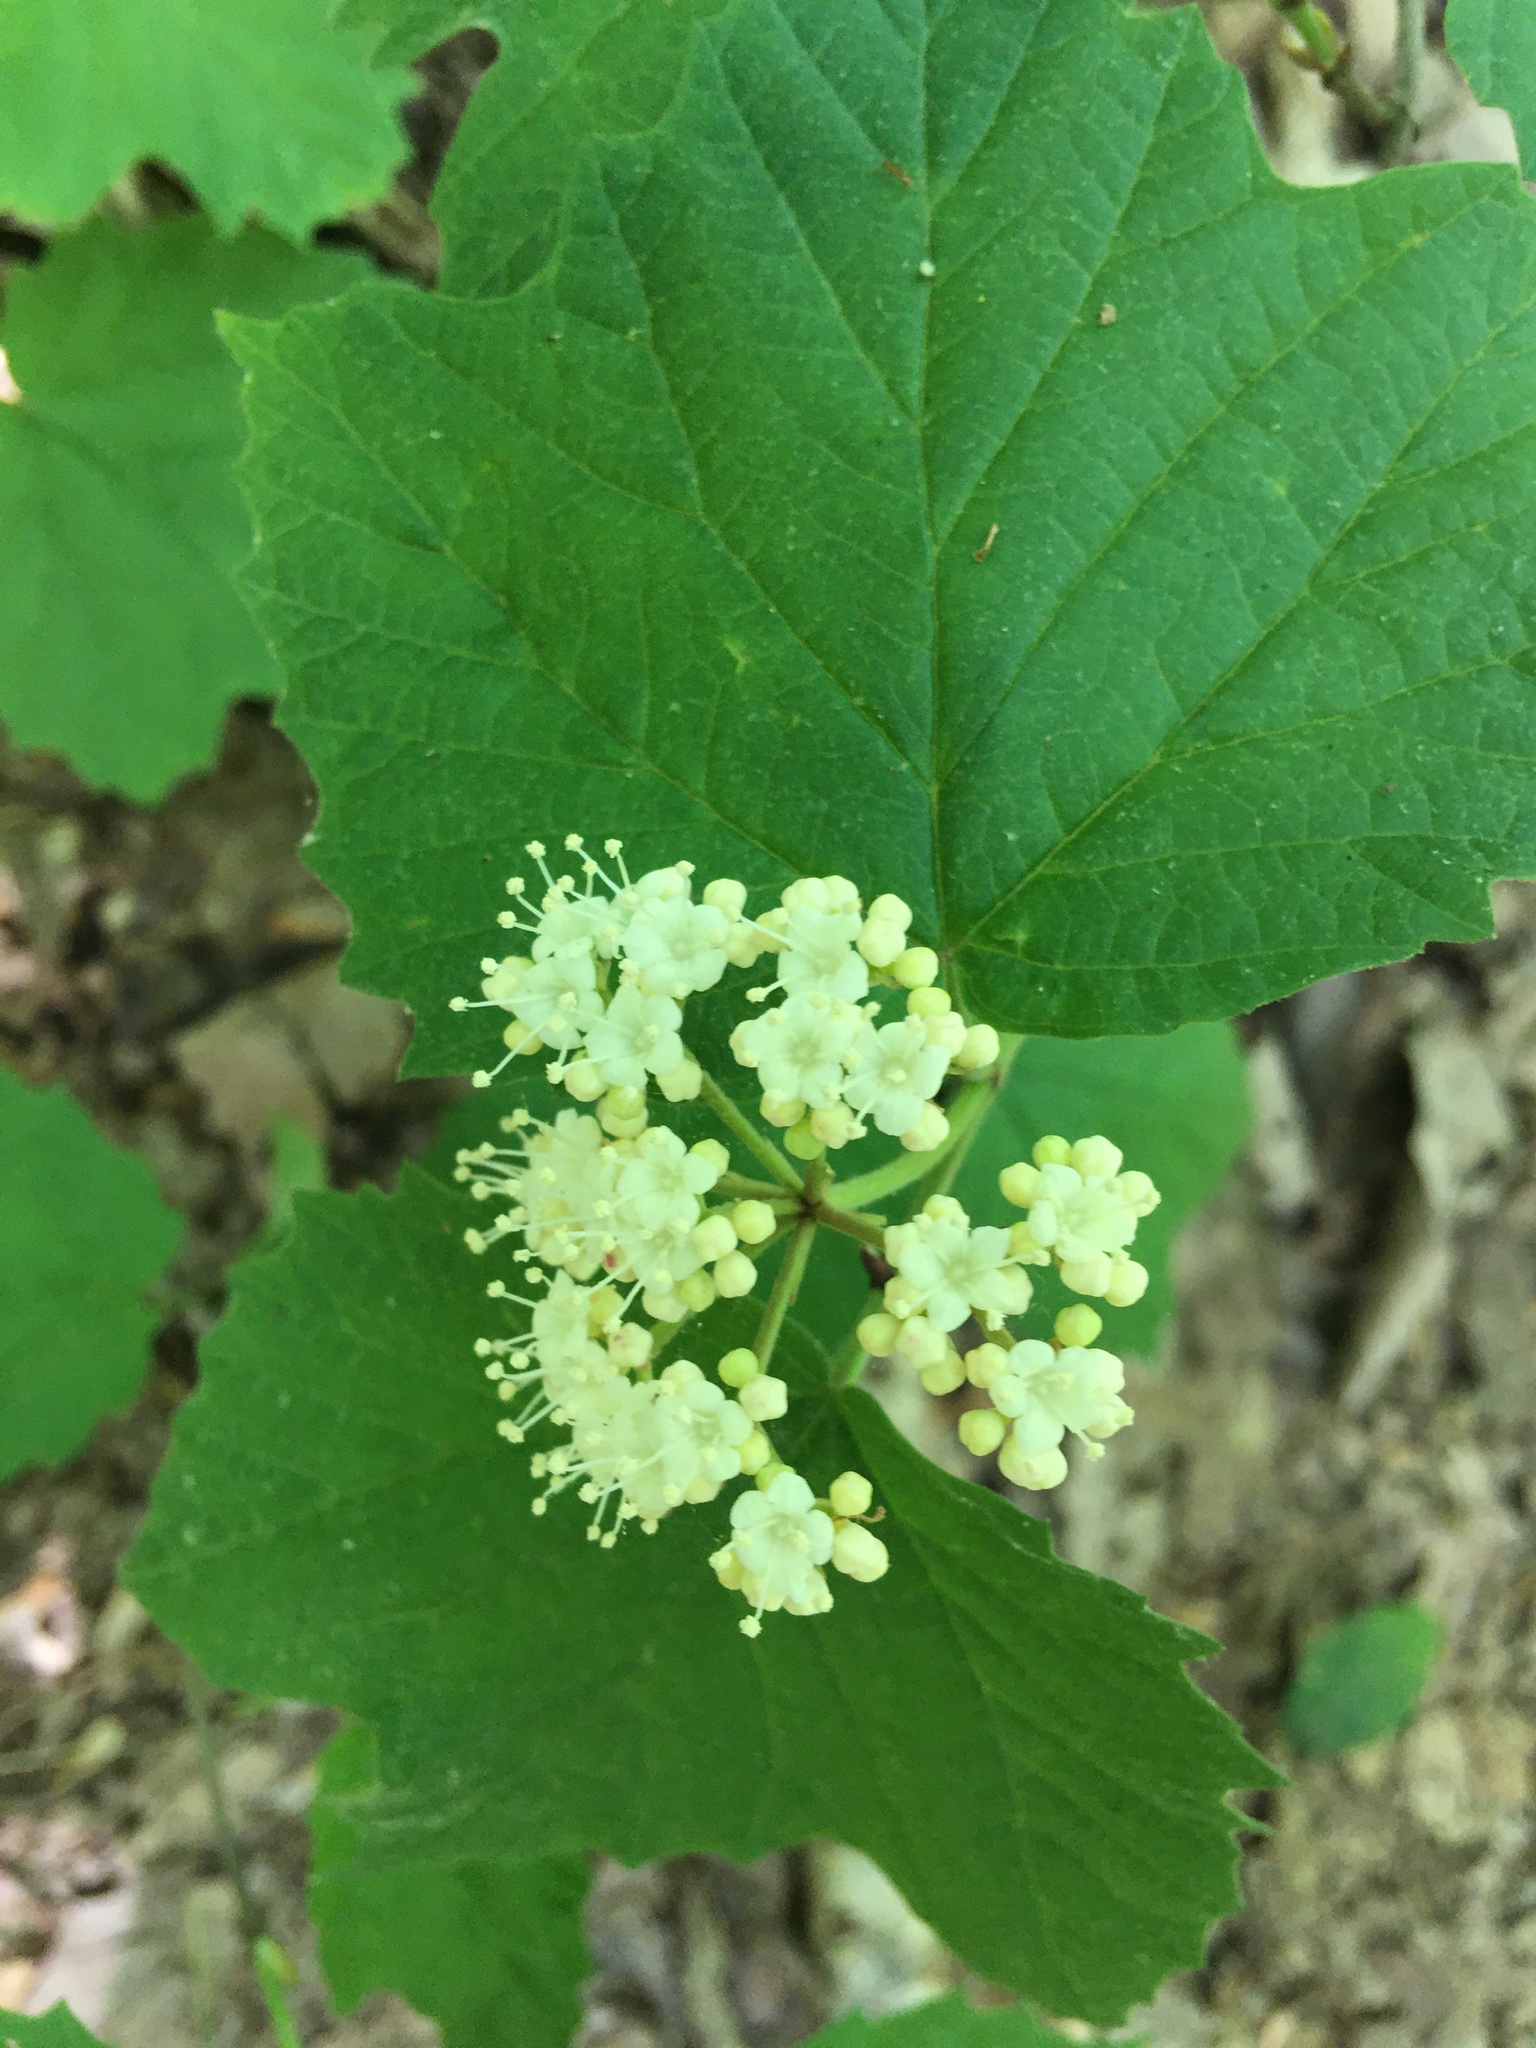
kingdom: Plantae
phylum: Tracheophyta
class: Magnoliopsida
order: Dipsacales
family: Viburnaceae
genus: Viburnum
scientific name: Viburnum acerifolium
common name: Dockmackie
